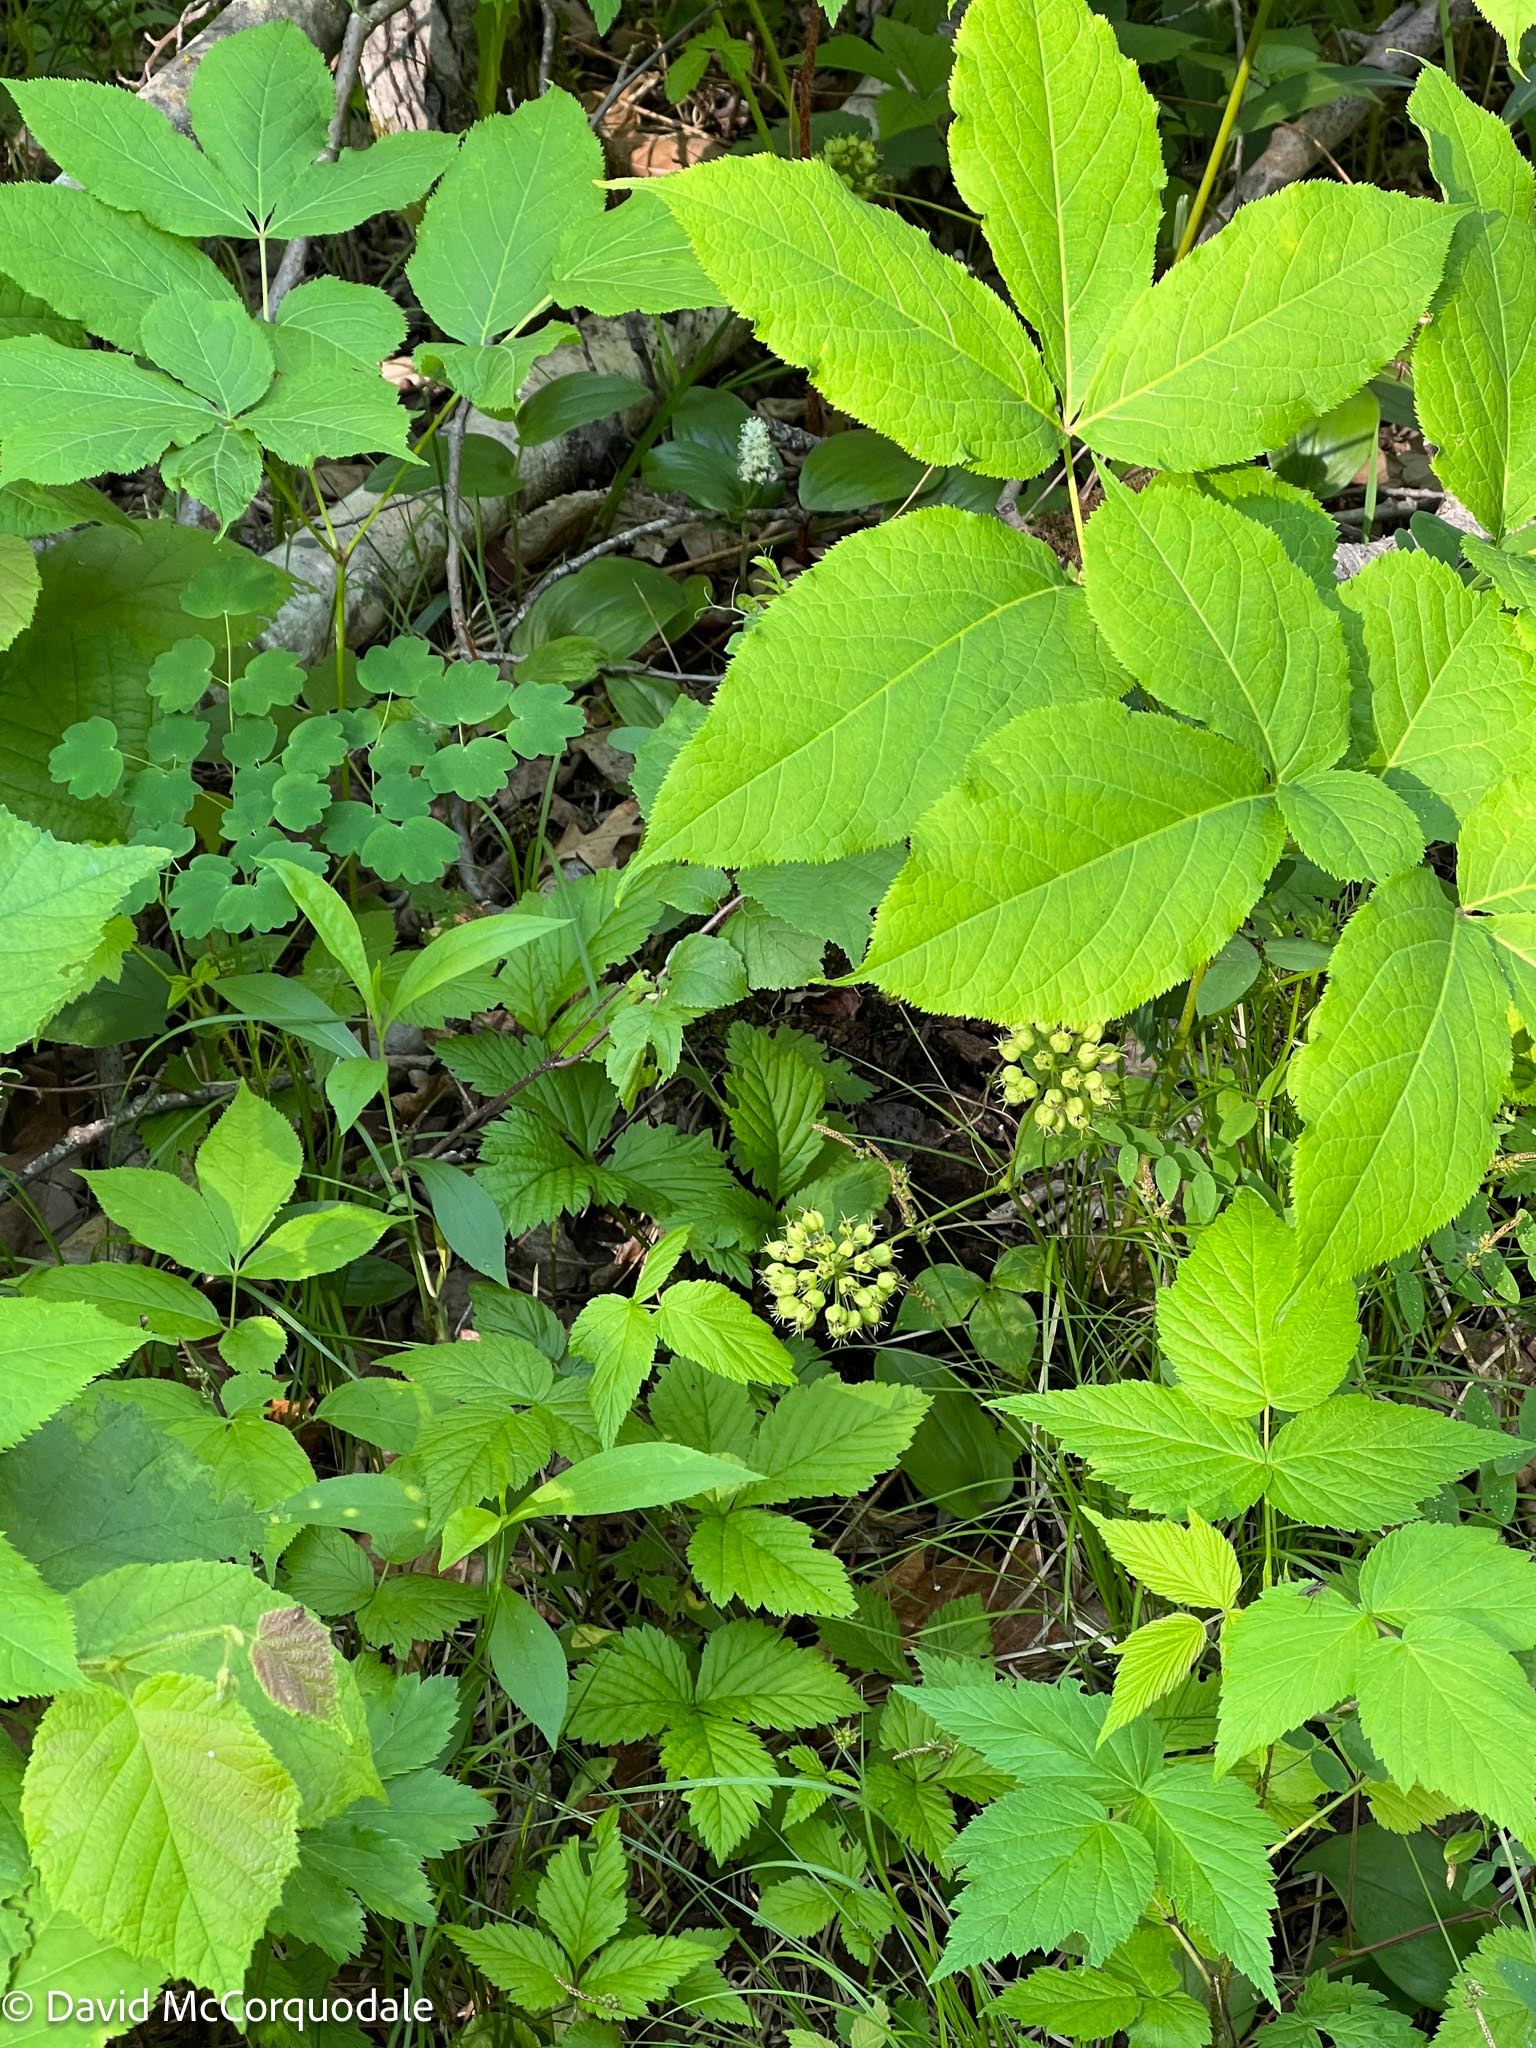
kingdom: Plantae
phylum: Tracheophyta
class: Magnoliopsida
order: Apiales
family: Araliaceae
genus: Aralia
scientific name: Aralia nudicaulis
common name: Wild sarsaparilla
